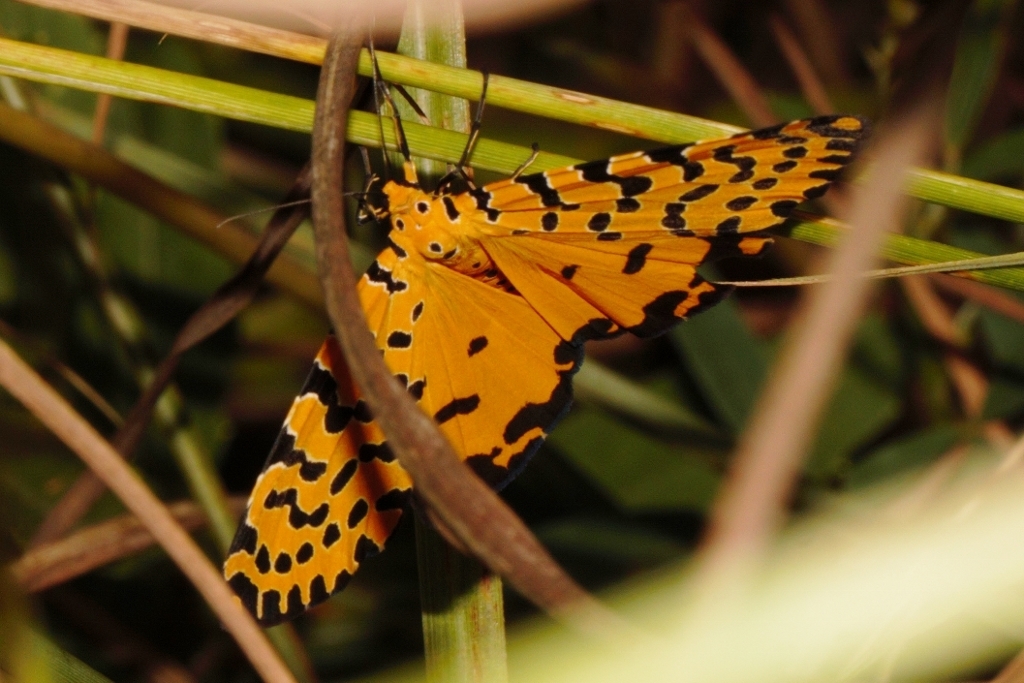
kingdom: Animalia
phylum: Arthropoda
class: Insecta
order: Lepidoptera
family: Erebidae
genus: Argina
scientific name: Argina Alytarchia amanda
